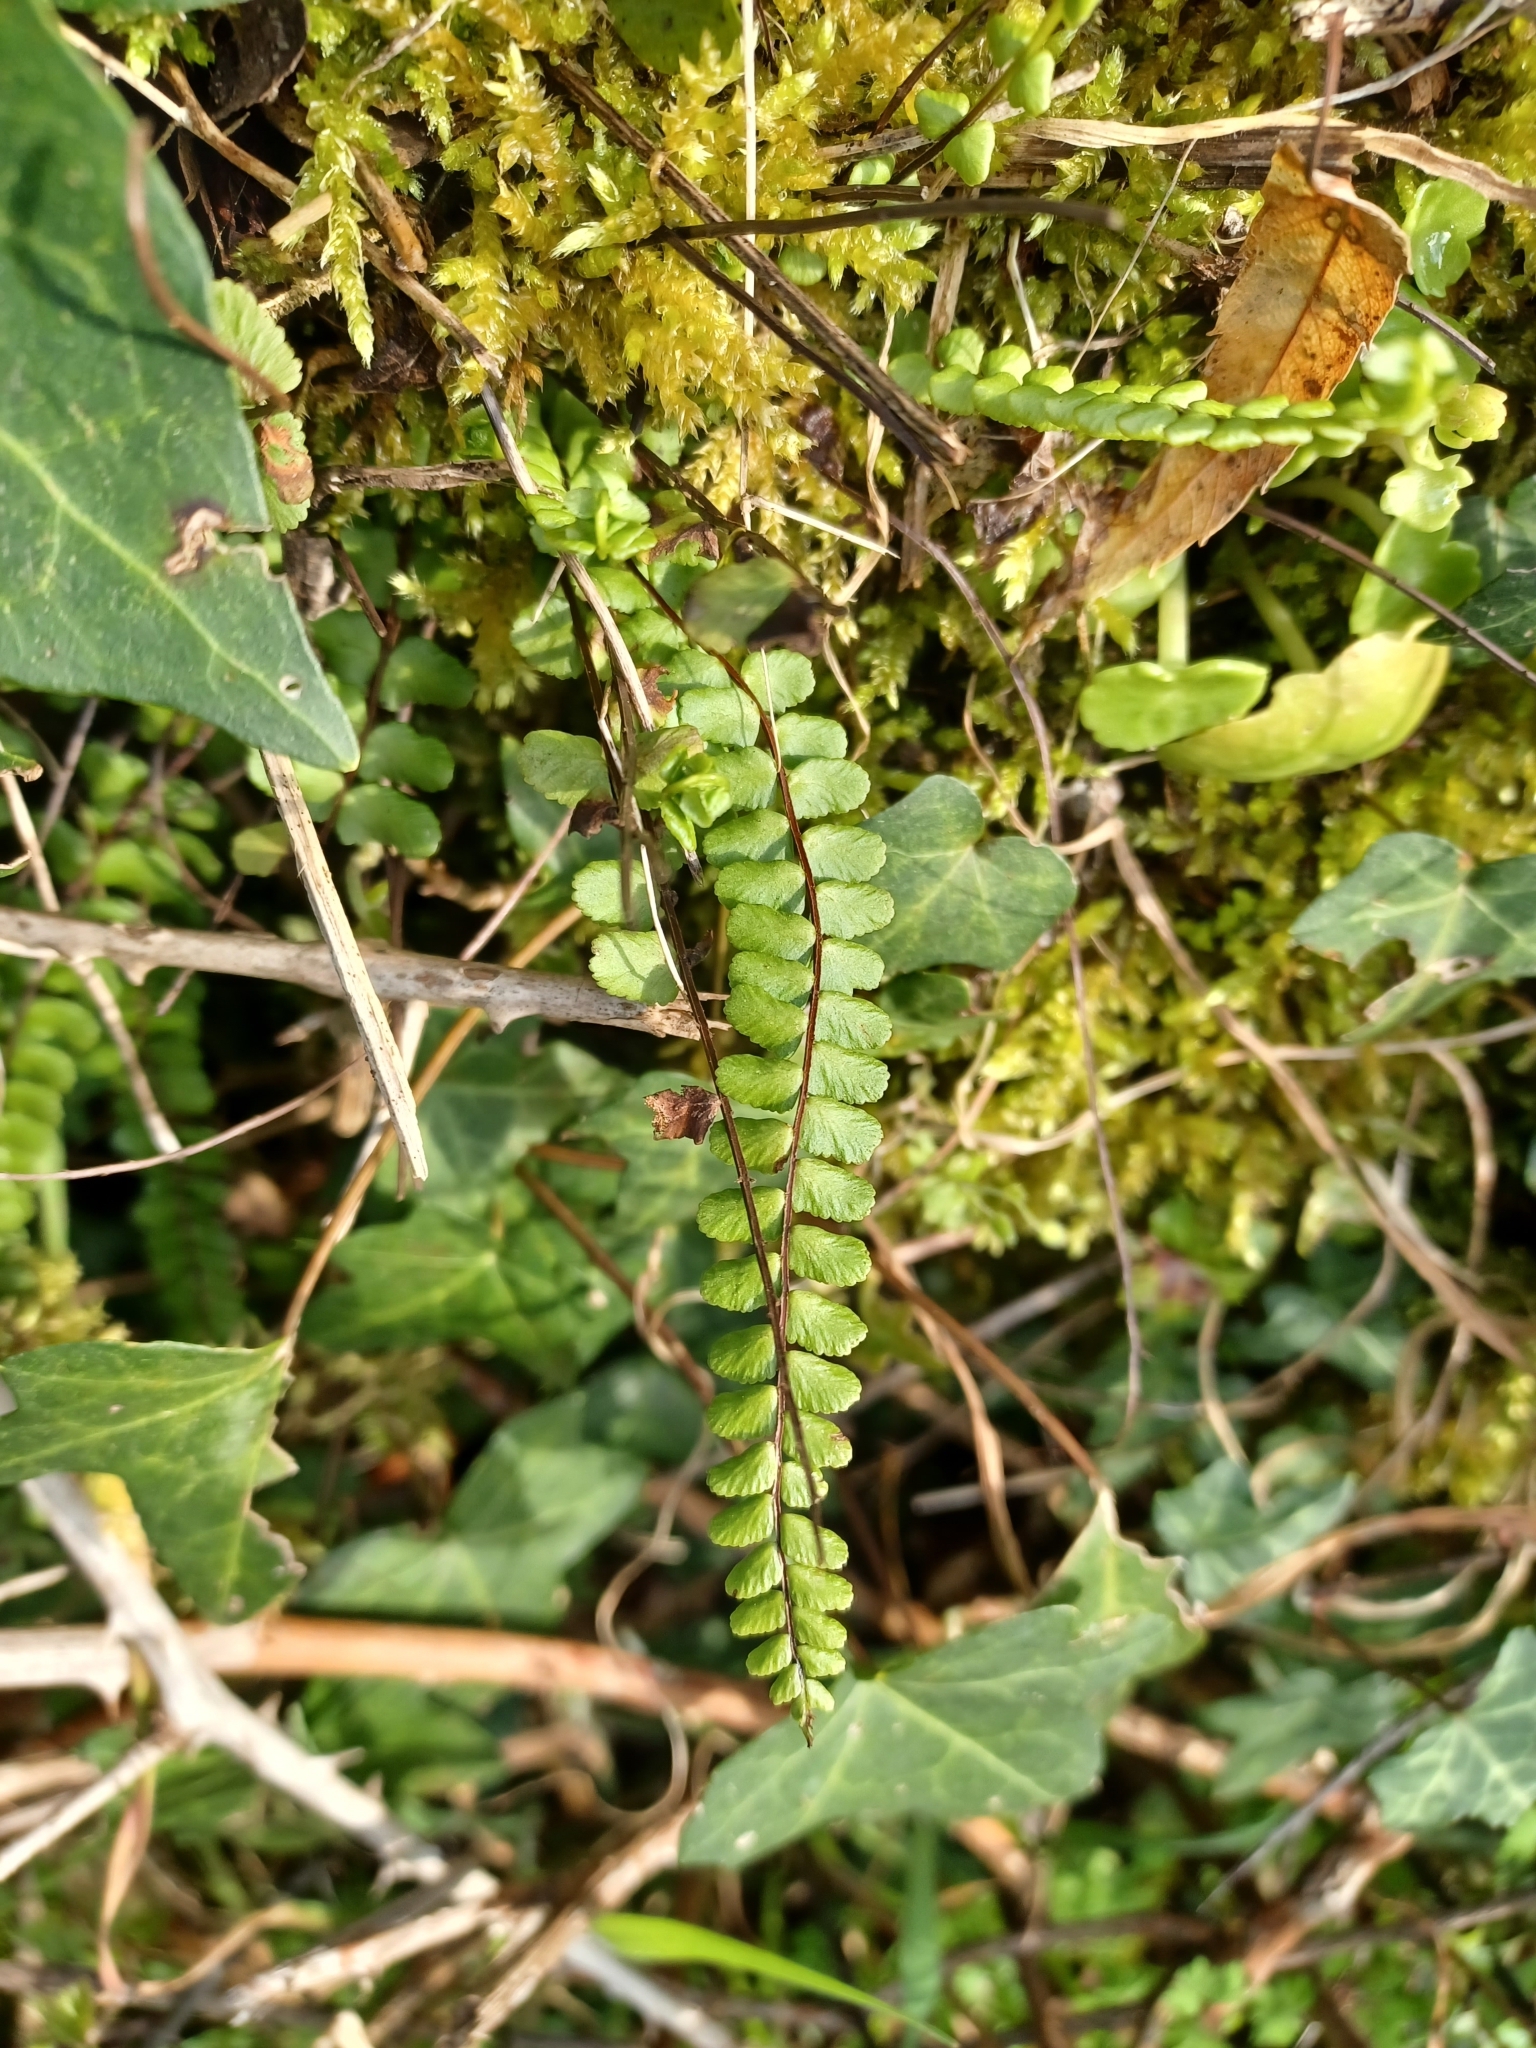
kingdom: Plantae
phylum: Tracheophyta
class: Polypodiopsida
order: Polypodiales
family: Aspleniaceae
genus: Asplenium
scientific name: Asplenium trichomanes
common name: Maidenhair spleenwort
